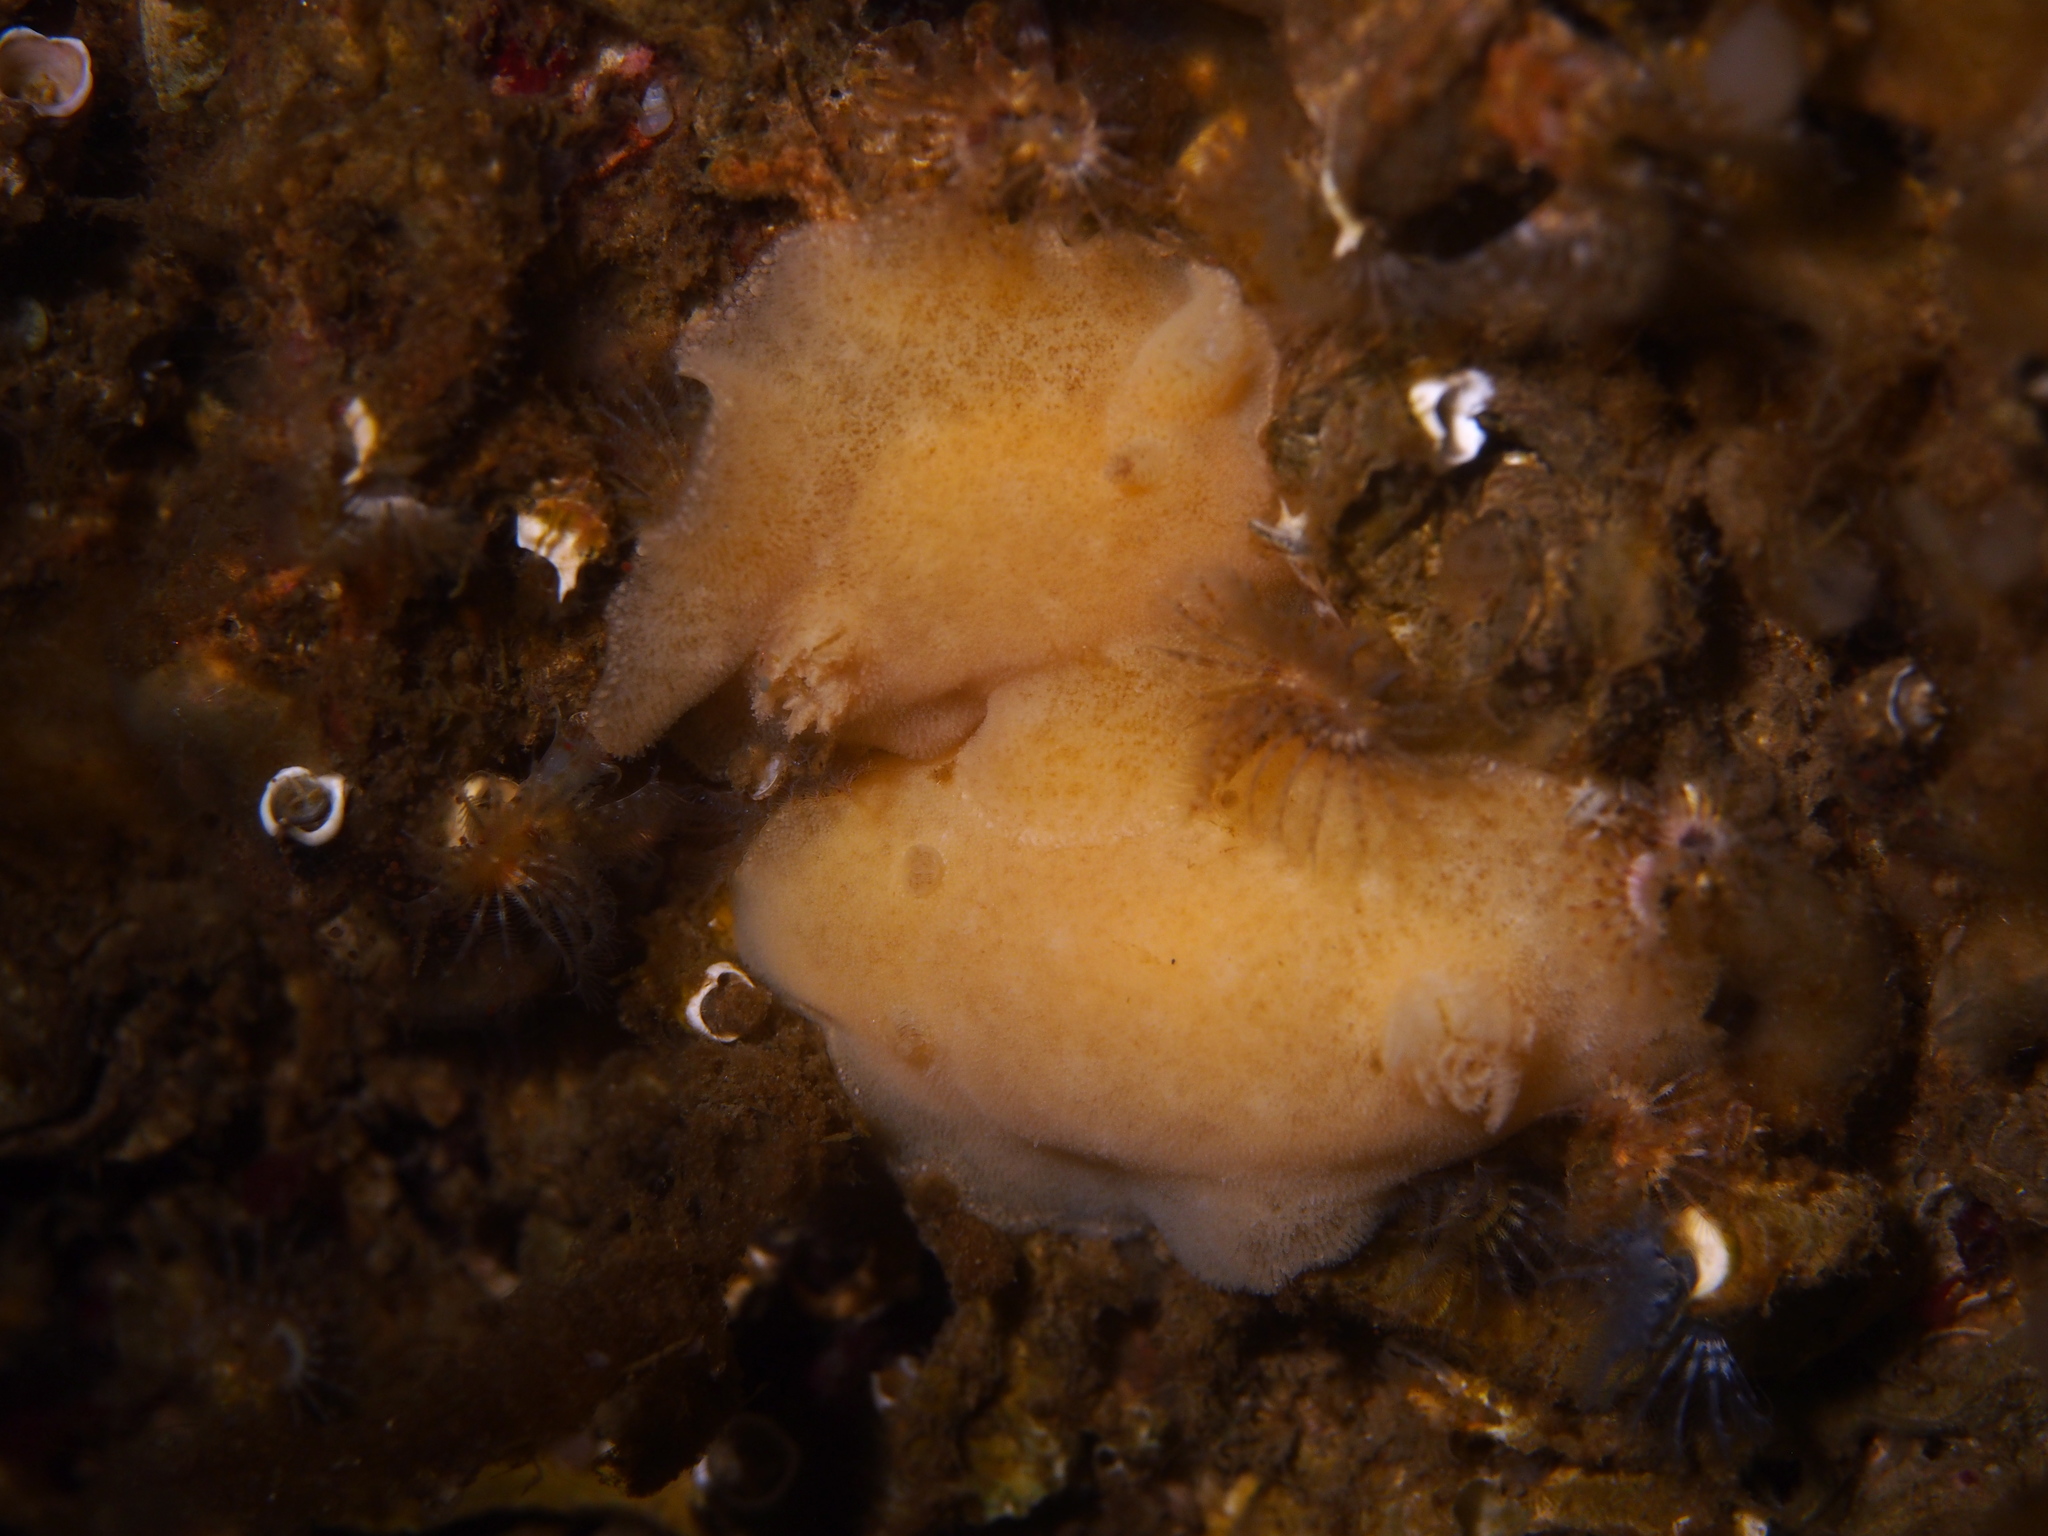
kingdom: Animalia
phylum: Mollusca
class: Gastropoda
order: Nudibranchia
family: Discodorididae
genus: Jorunna
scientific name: Jorunna tomentosa
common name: Grey sea slug
